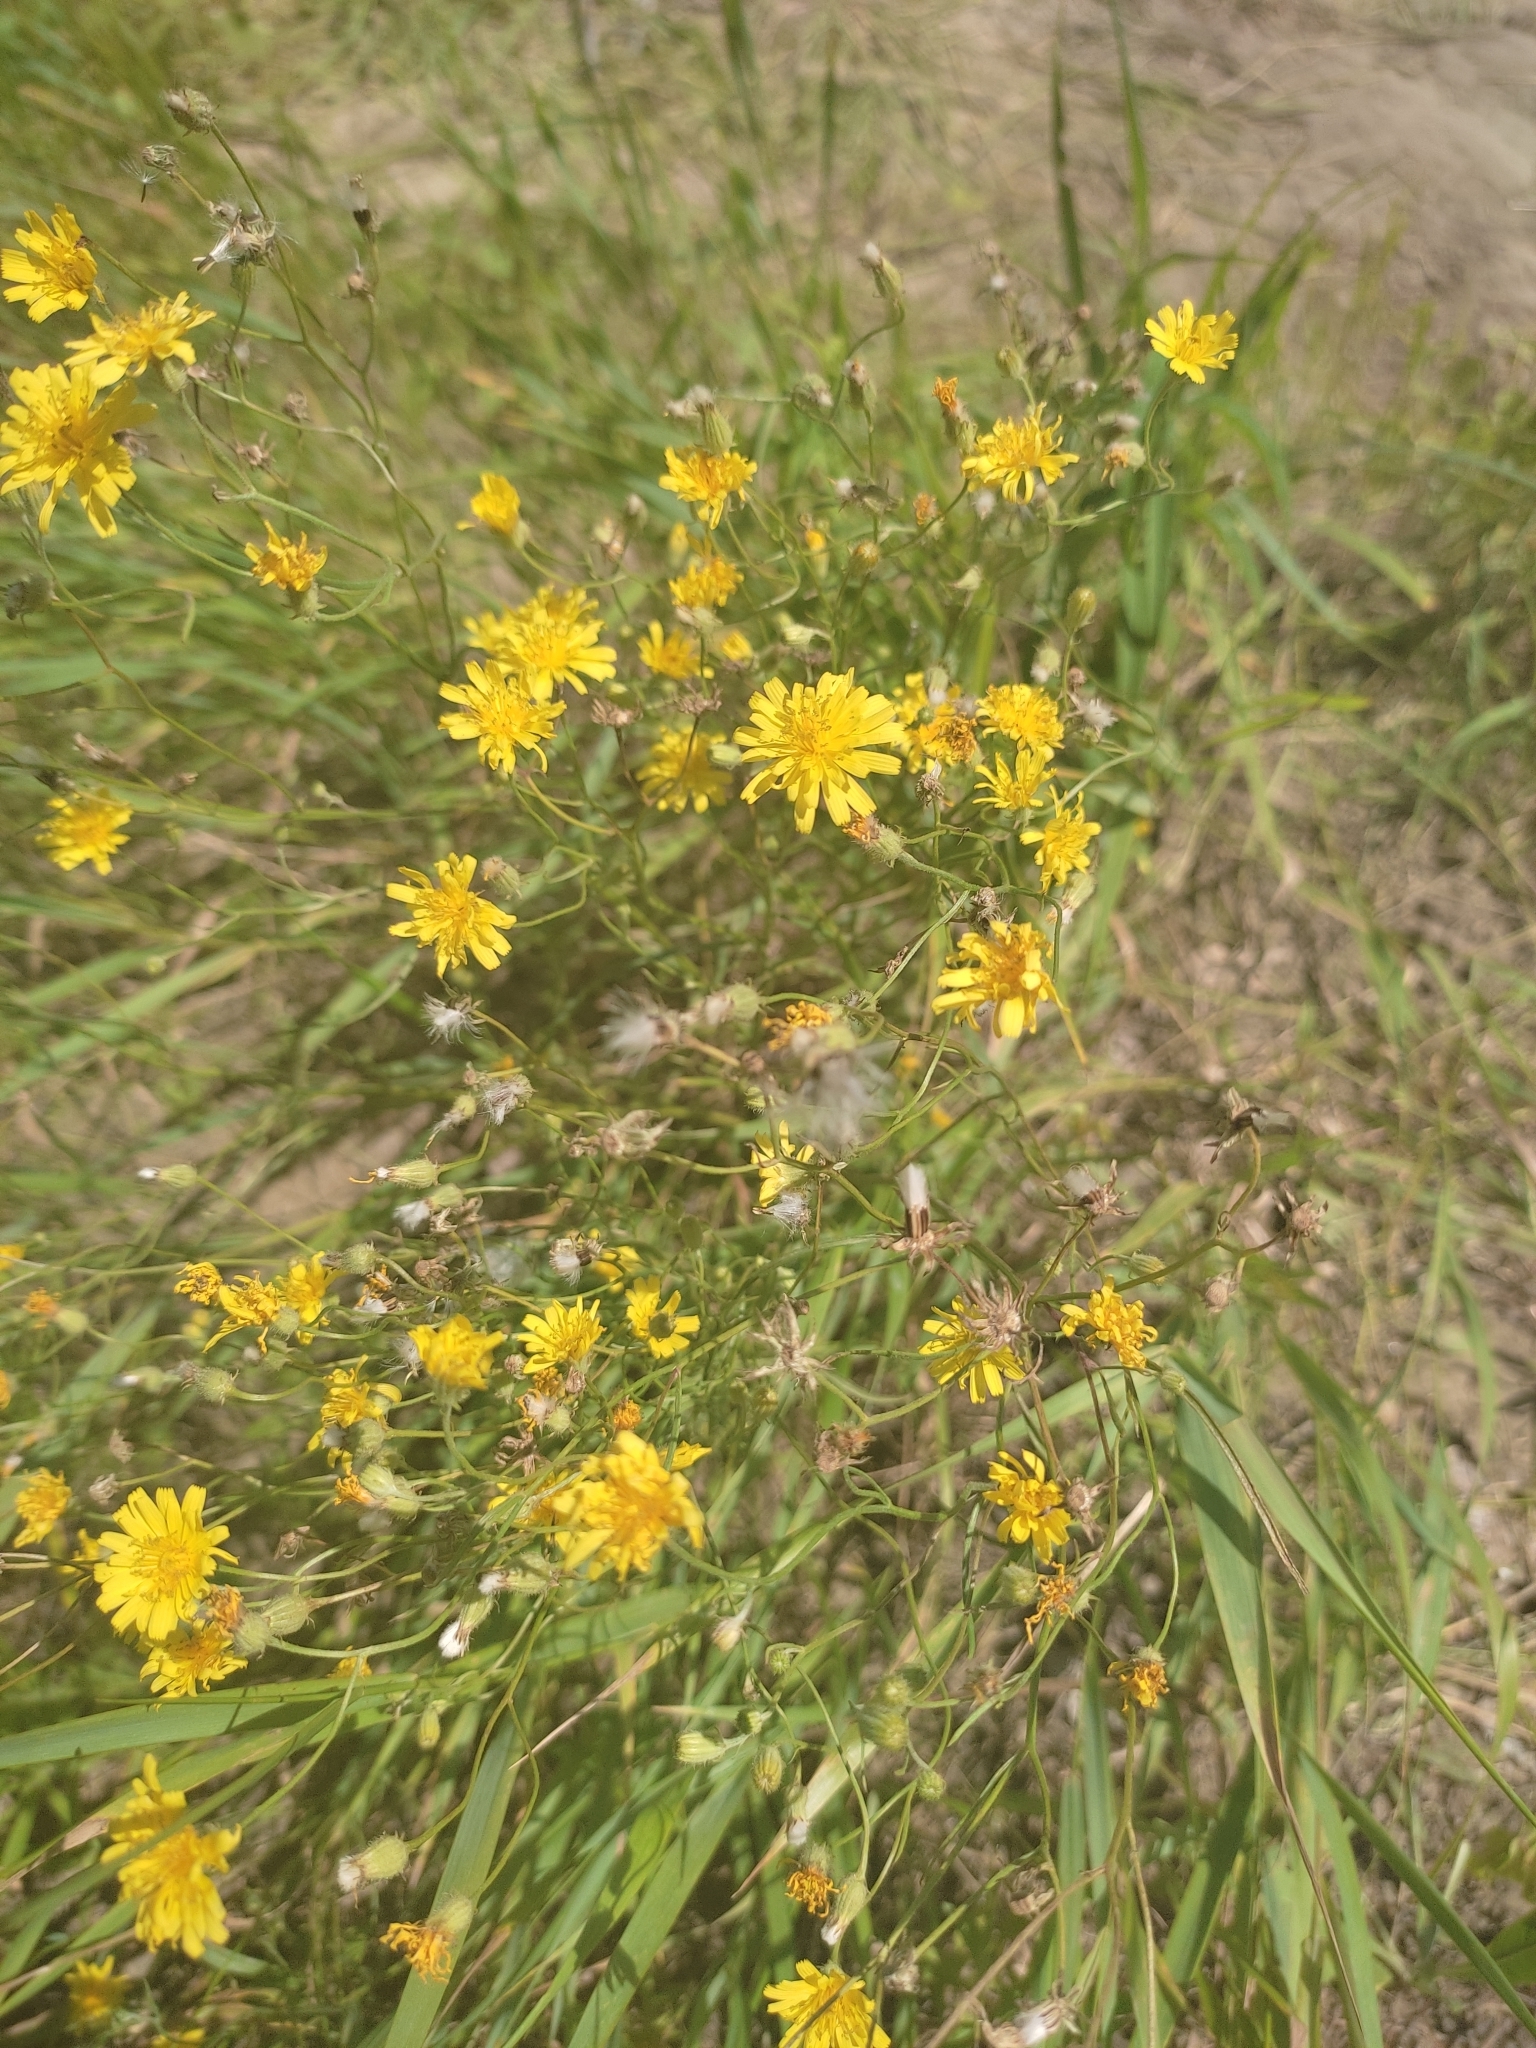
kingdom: Plantae
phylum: Tracheophyta
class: Magnoliopsida
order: Asterales
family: Asteraceae
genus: Crepis
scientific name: Crepis tectorum
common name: Narrow-leaved hawk's-beard
